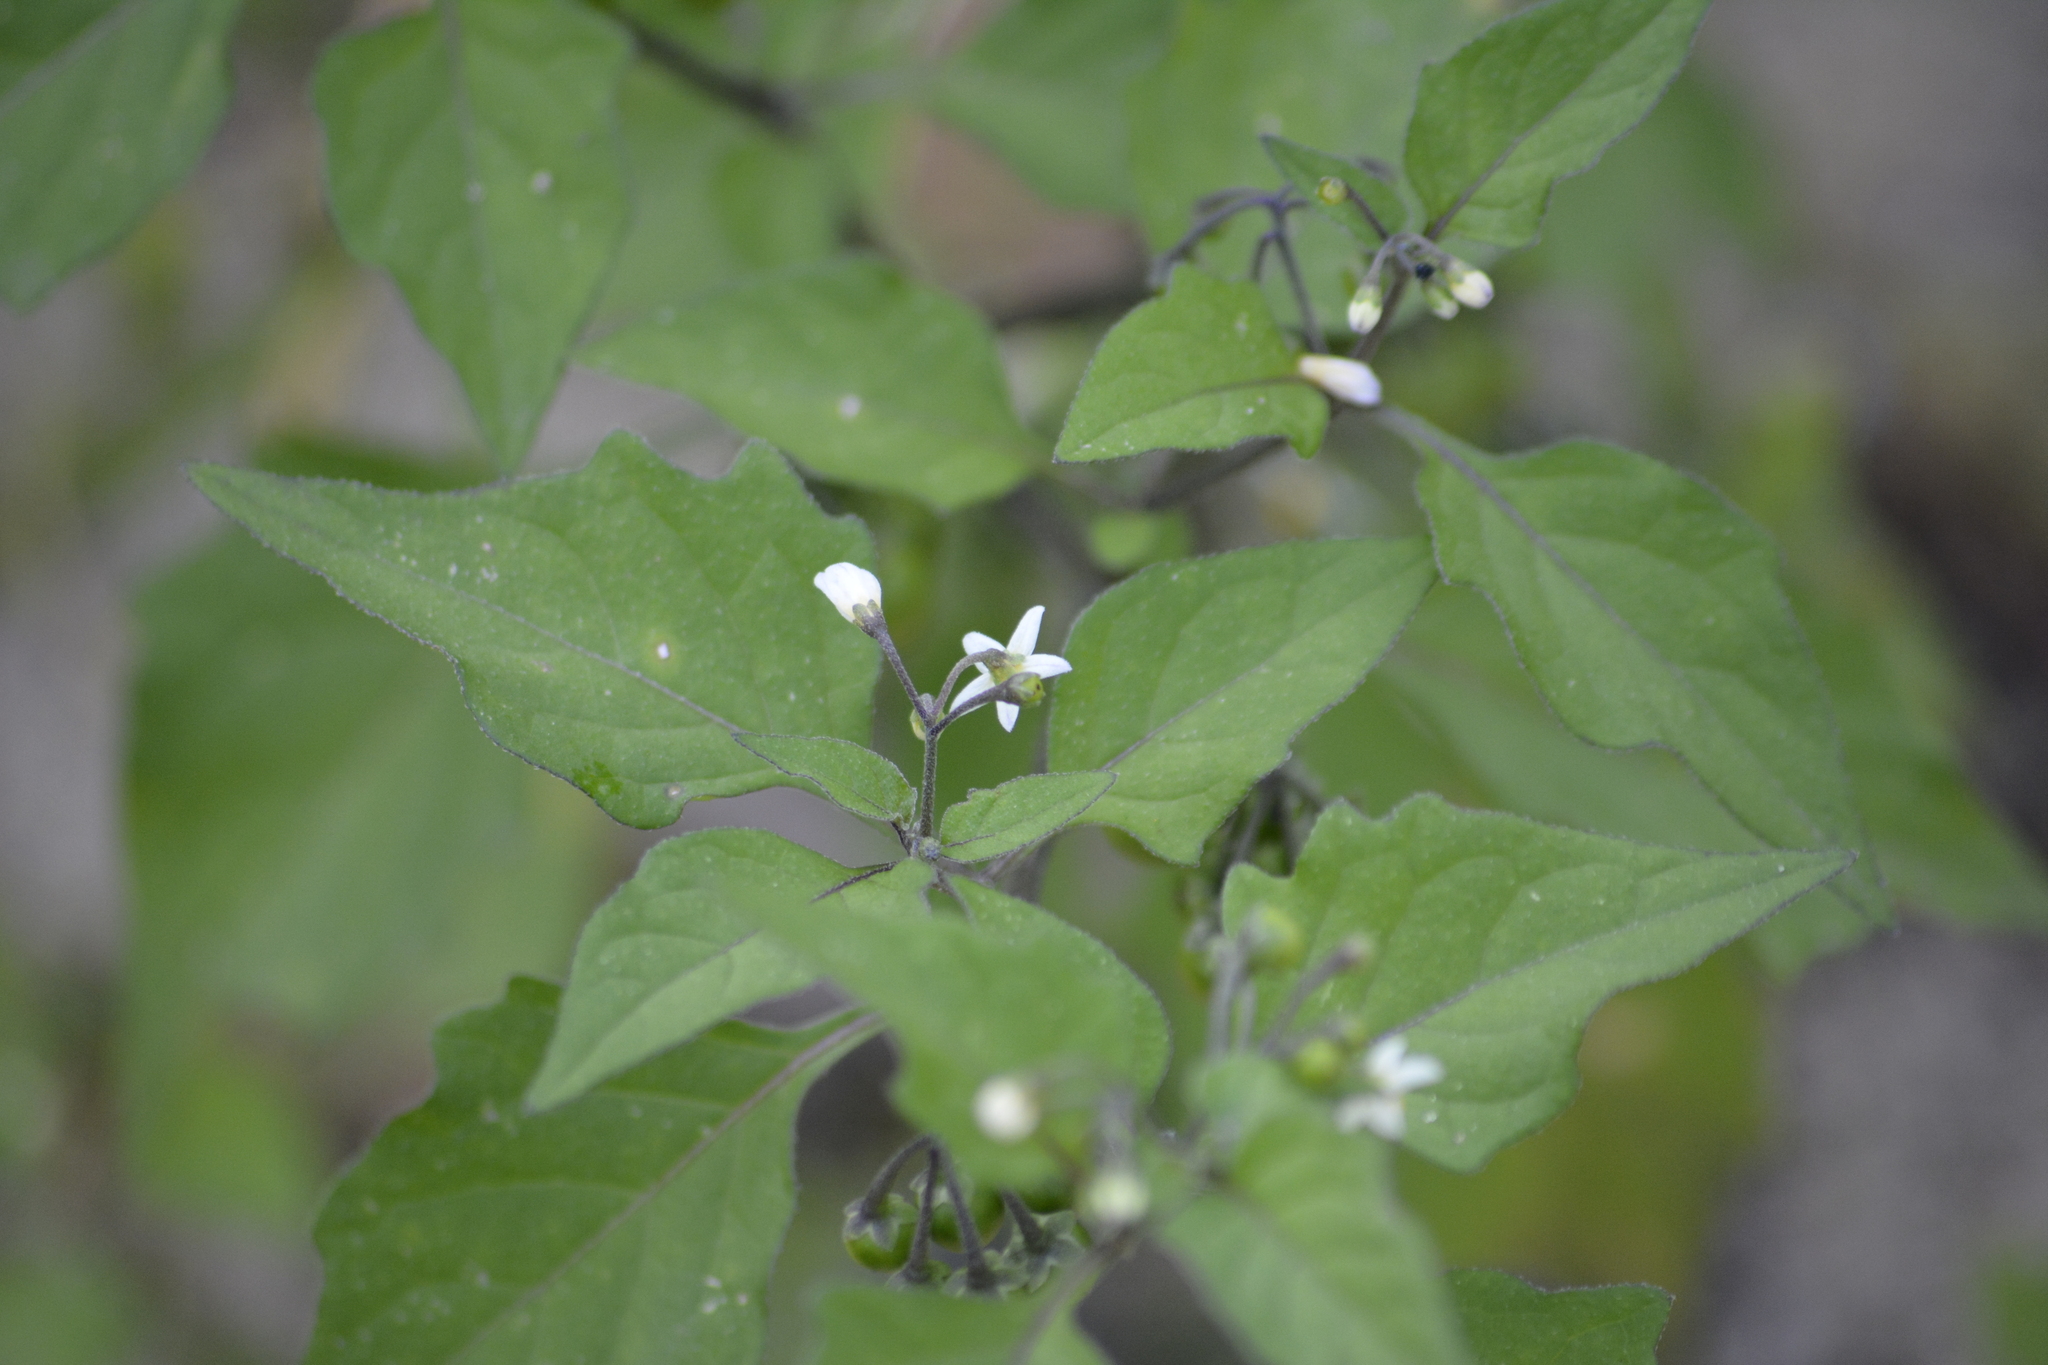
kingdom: Plantae
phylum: Tracheophyta
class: Magnoliopsida
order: Solanales
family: Solanaceae
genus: Solanum
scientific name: Solanum nigrum
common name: Black nightshade
